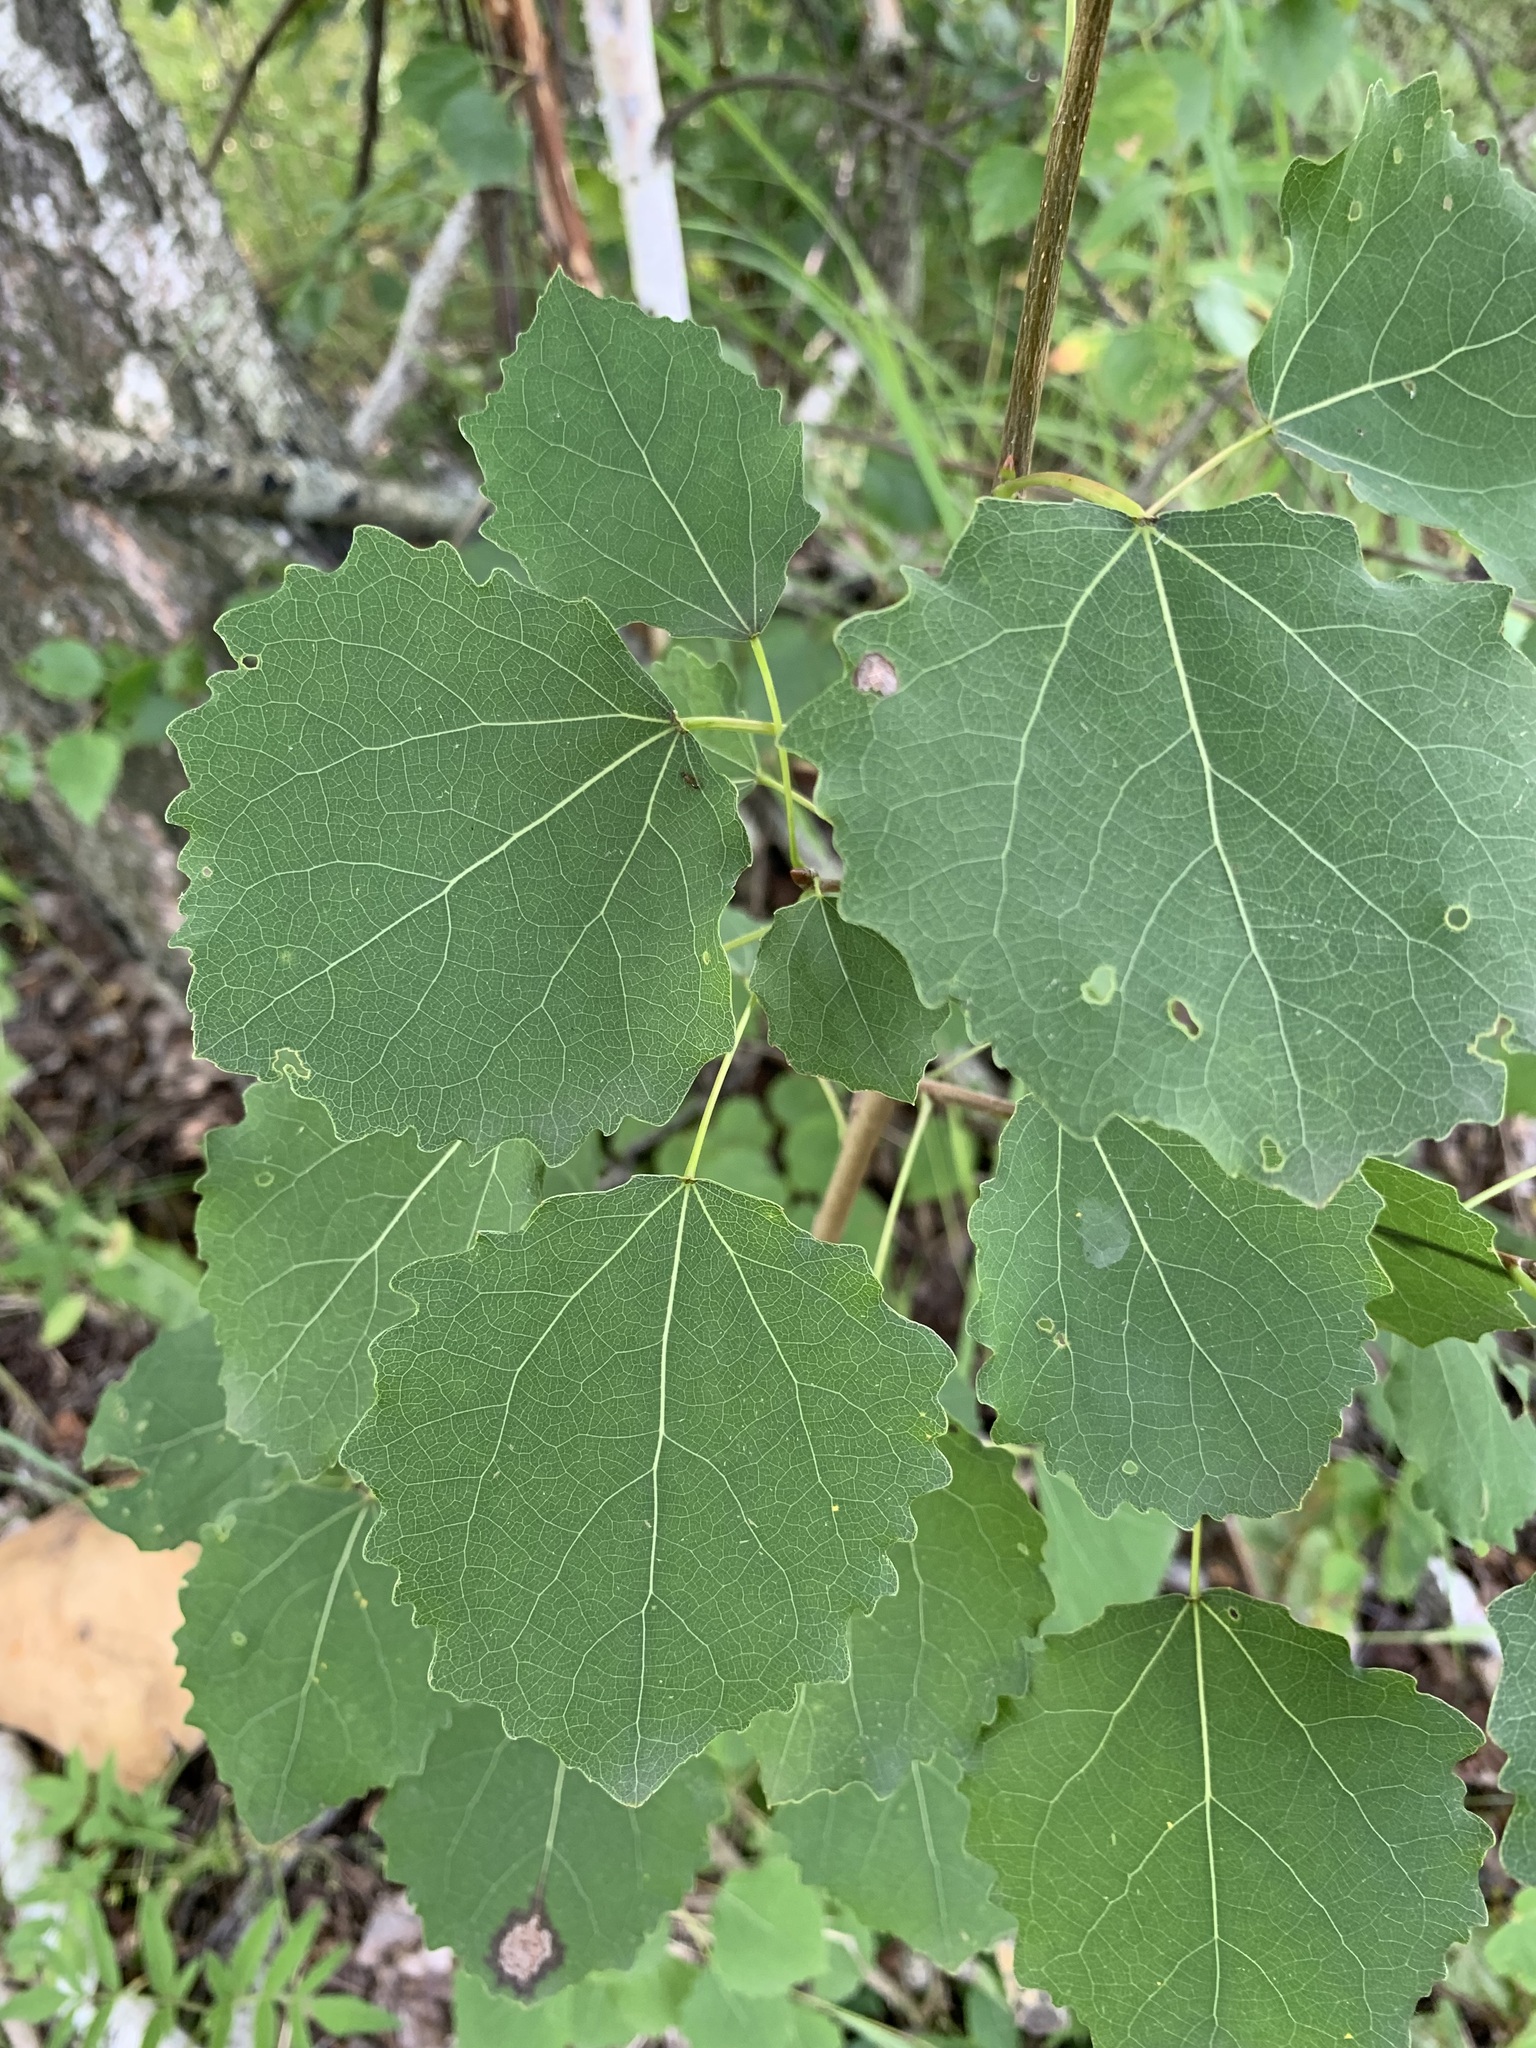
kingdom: Plantae
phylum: Tracheophyta
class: Magnoliopsida
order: Malpighiales
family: Salicaceae
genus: Populus
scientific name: Populus tremula
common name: European aspen
